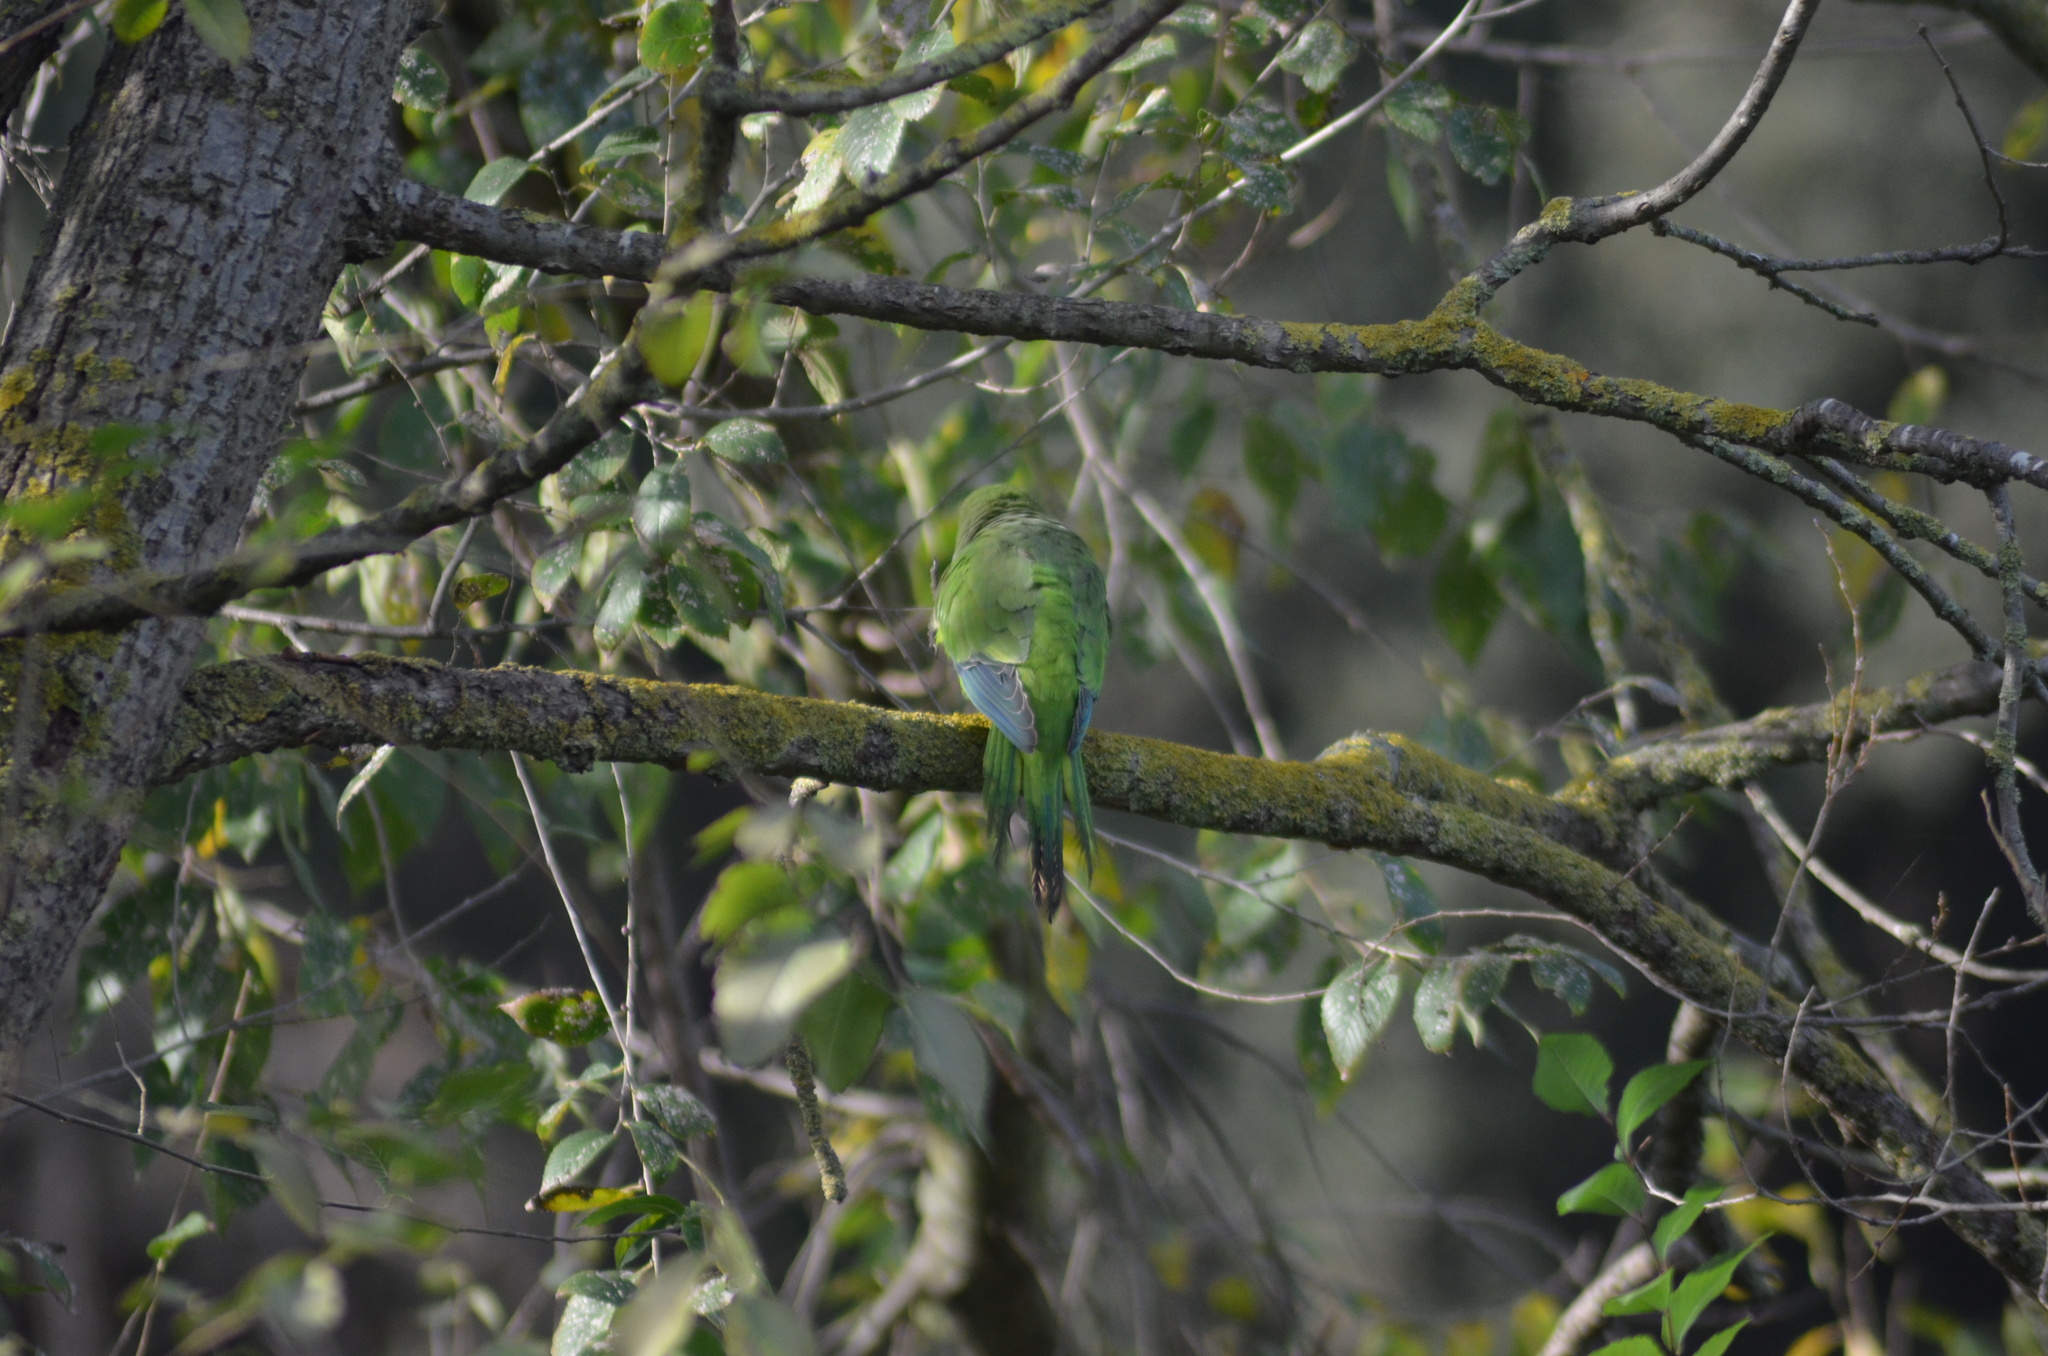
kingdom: Animalia
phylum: Chordata
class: Aves
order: Psittaciformes
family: Psittacidae
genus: Myiopsitta
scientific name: Myiopsitta monachus
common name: Monk parakeet
